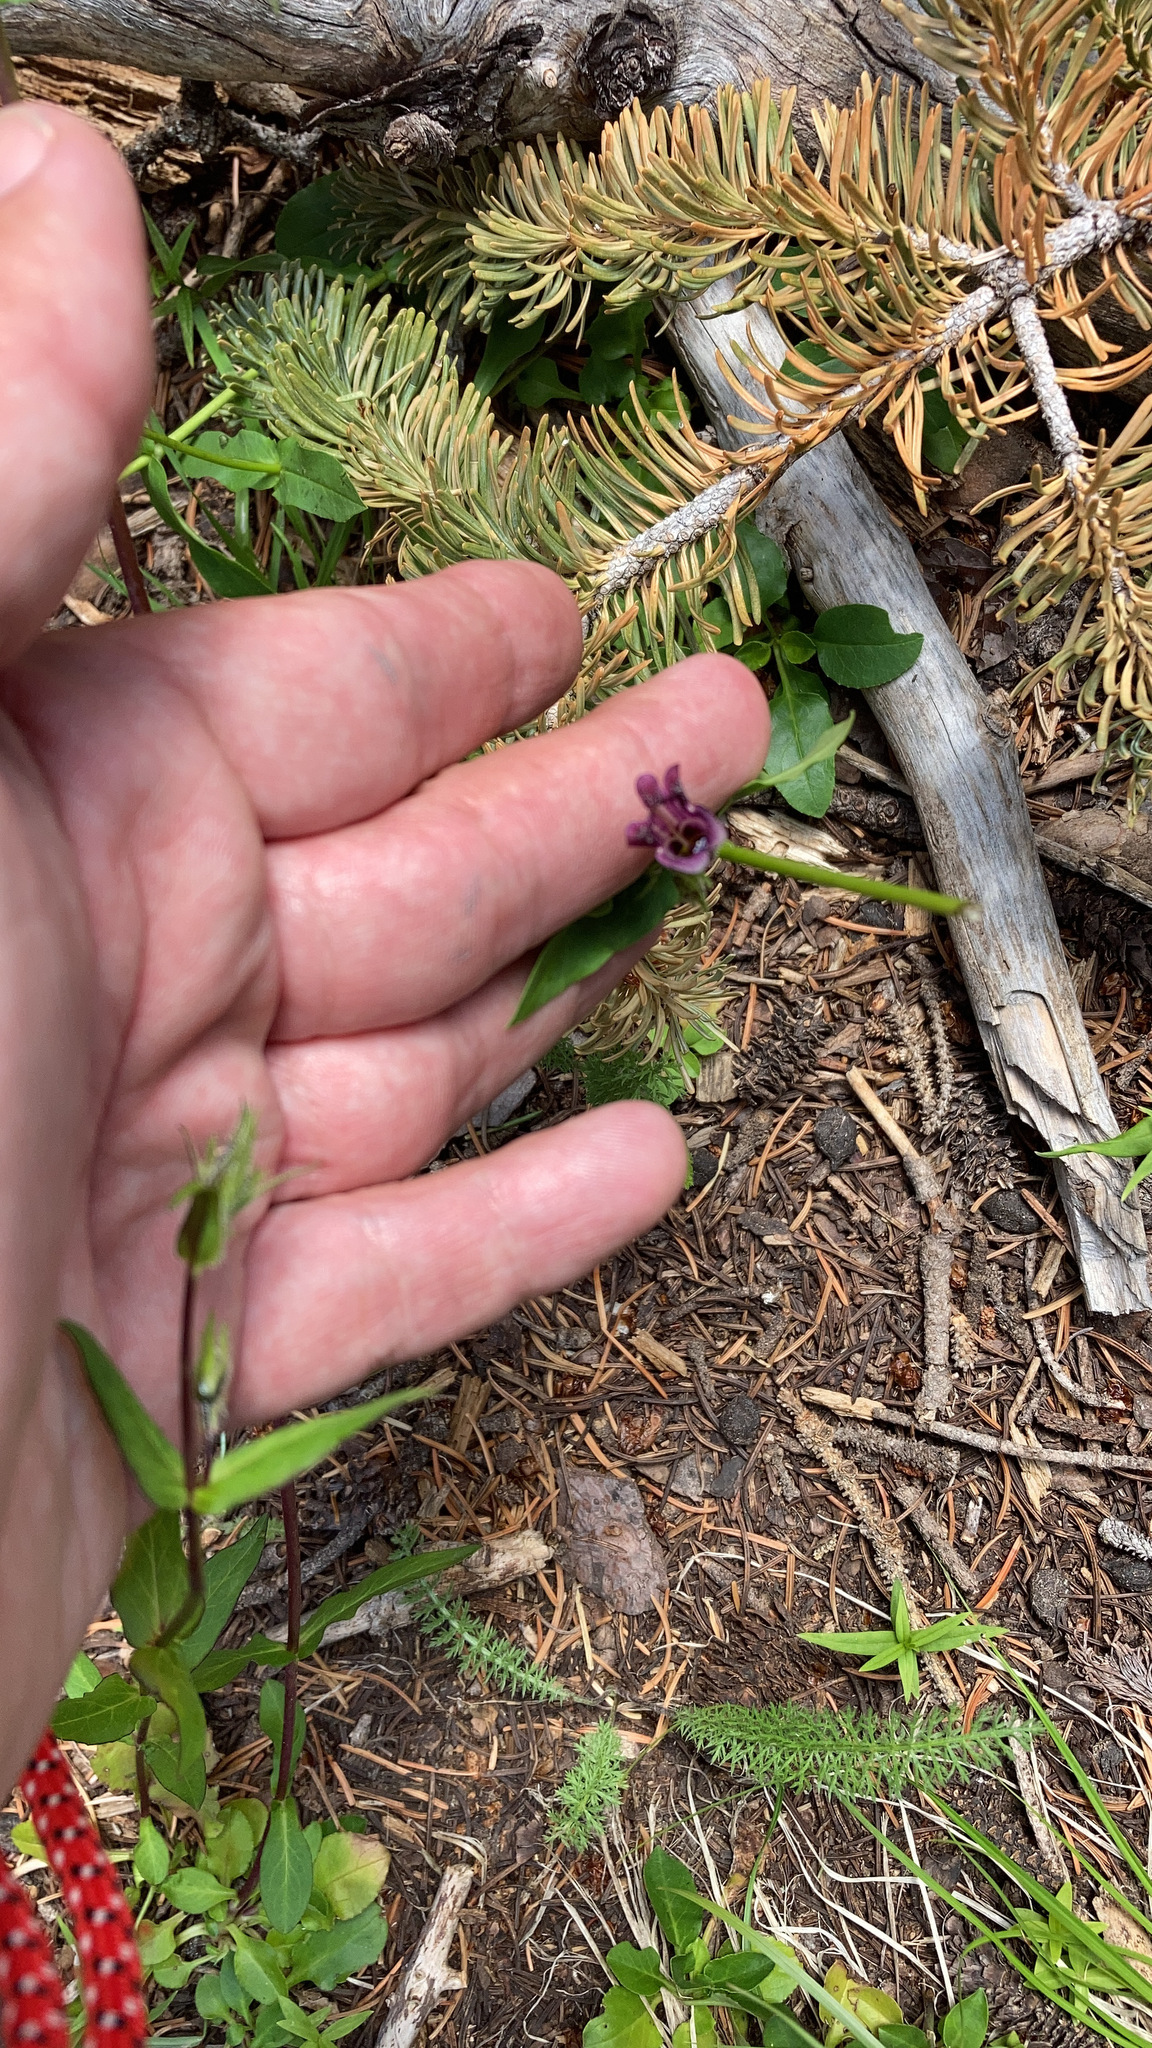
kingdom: Plantae
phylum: Tracheophyta
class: Magnoliopsida
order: Lamiales
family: Plantaginaceae
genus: Penstemon
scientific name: Penstemon whippleanus
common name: Whipple's penstemon
